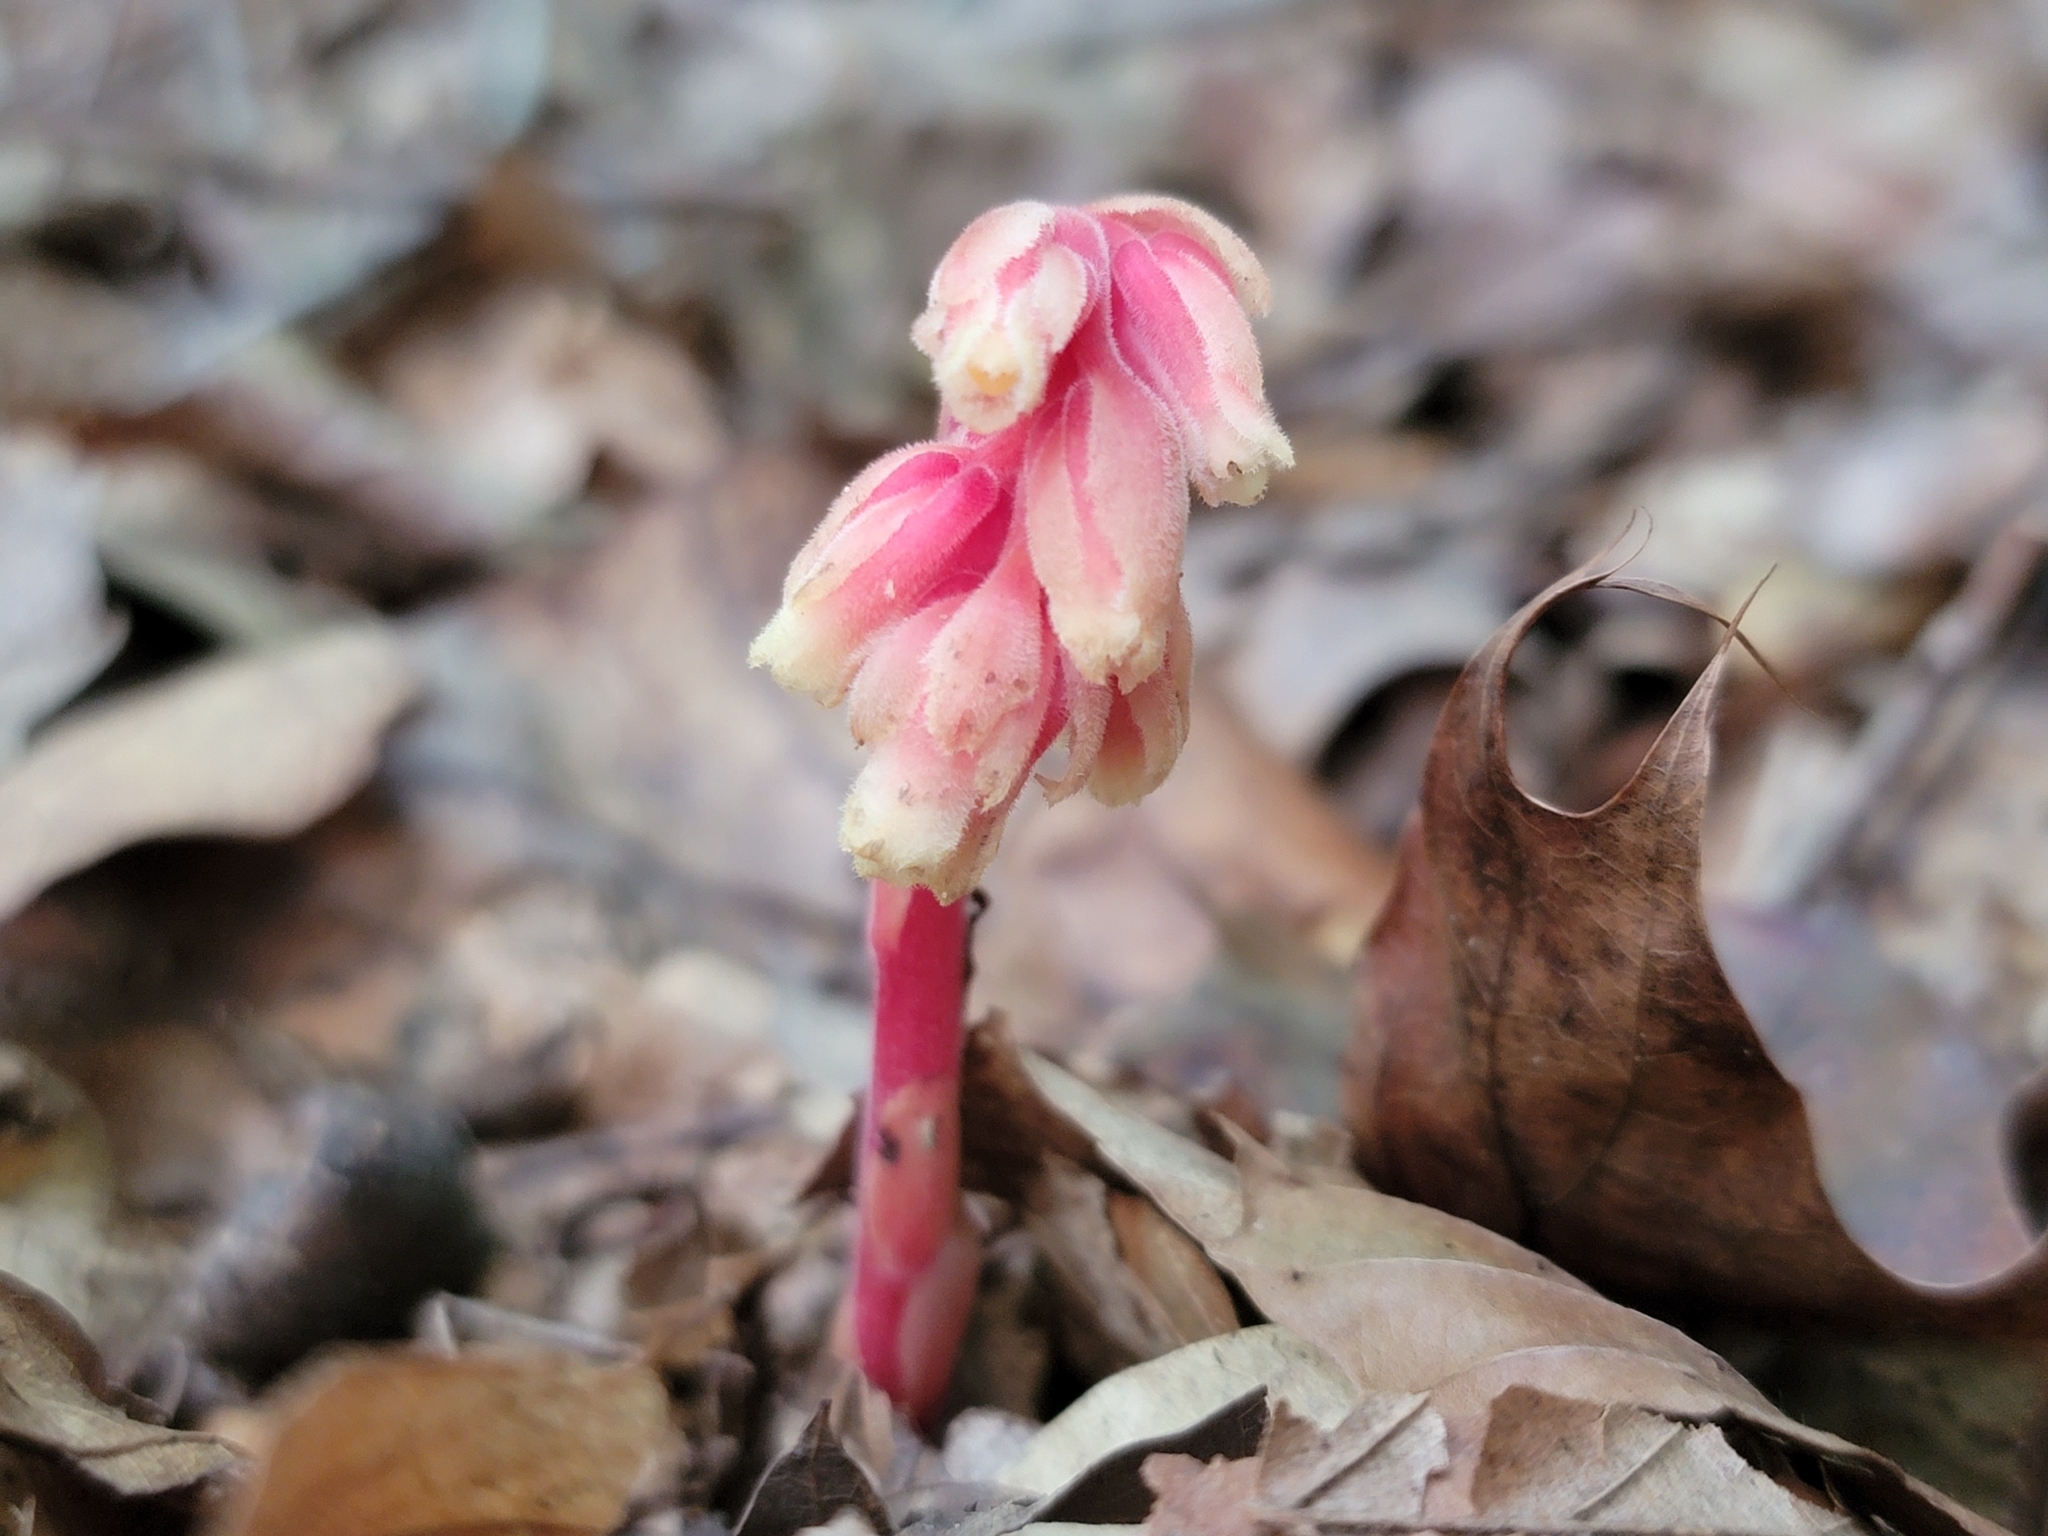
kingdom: Plantae
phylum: Tracheophyta
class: Magnoliopsida
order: Ericales
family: Ericaceae
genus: Hypopitys
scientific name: Hypopitys monotropa
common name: Yellow bird's-nest
